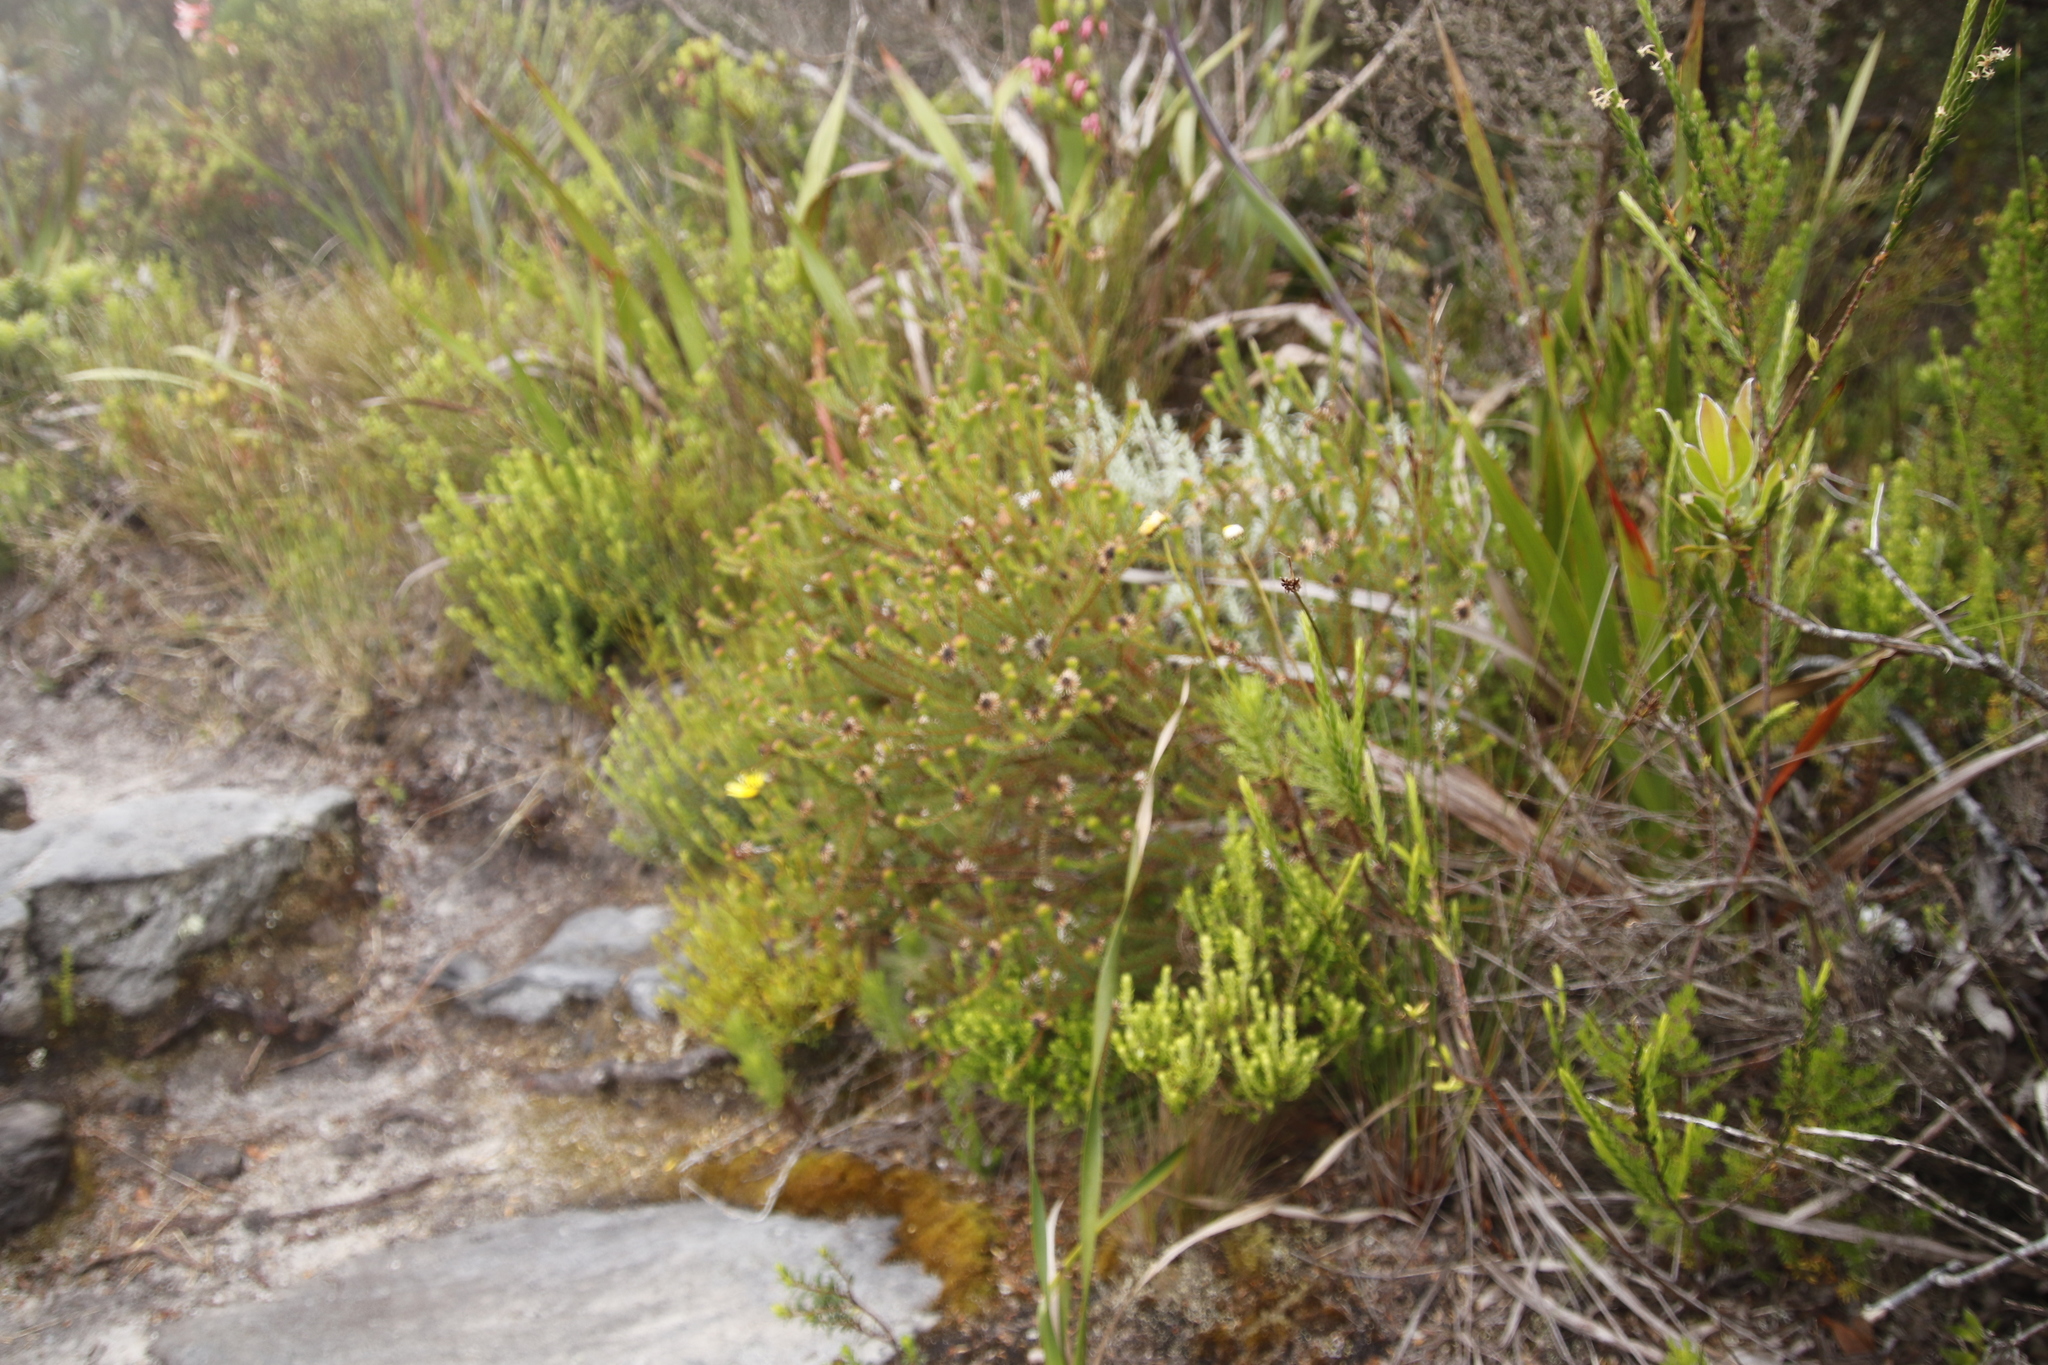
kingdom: Plantae
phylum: Tracheophyta
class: Magnoliopsida
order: Bruniales
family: Bruniaceae
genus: Staavia
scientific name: Staavia glutinosa
